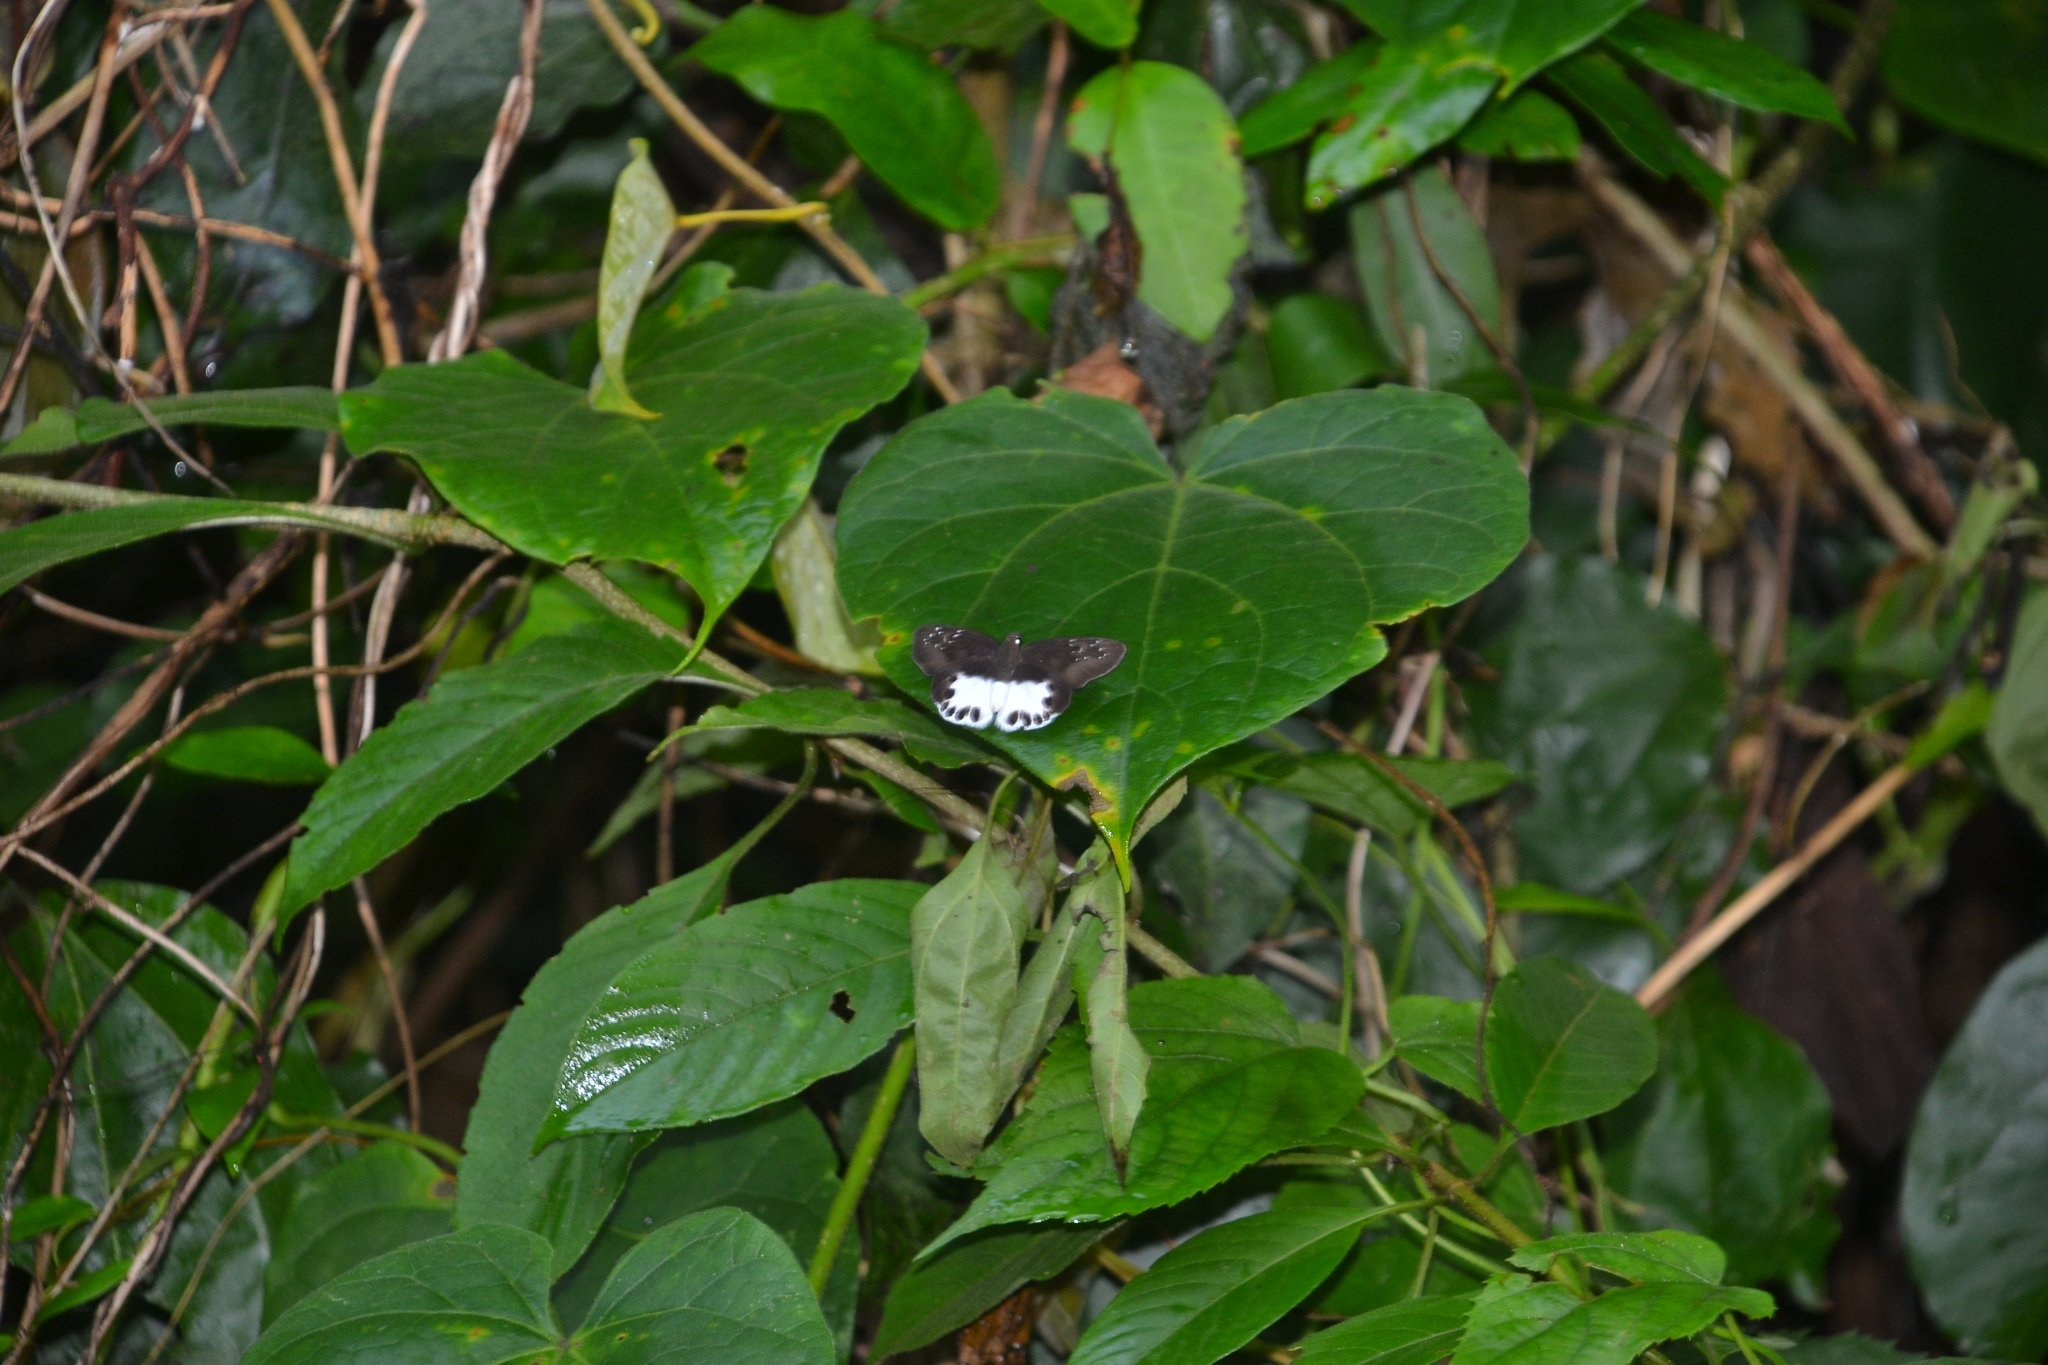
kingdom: Animalia
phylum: Arthropoda
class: Insecta
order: Lepidoptera
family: Hesperiidae
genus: Tagiades
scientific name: Tagiades litigiosa
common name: Water snow flat
